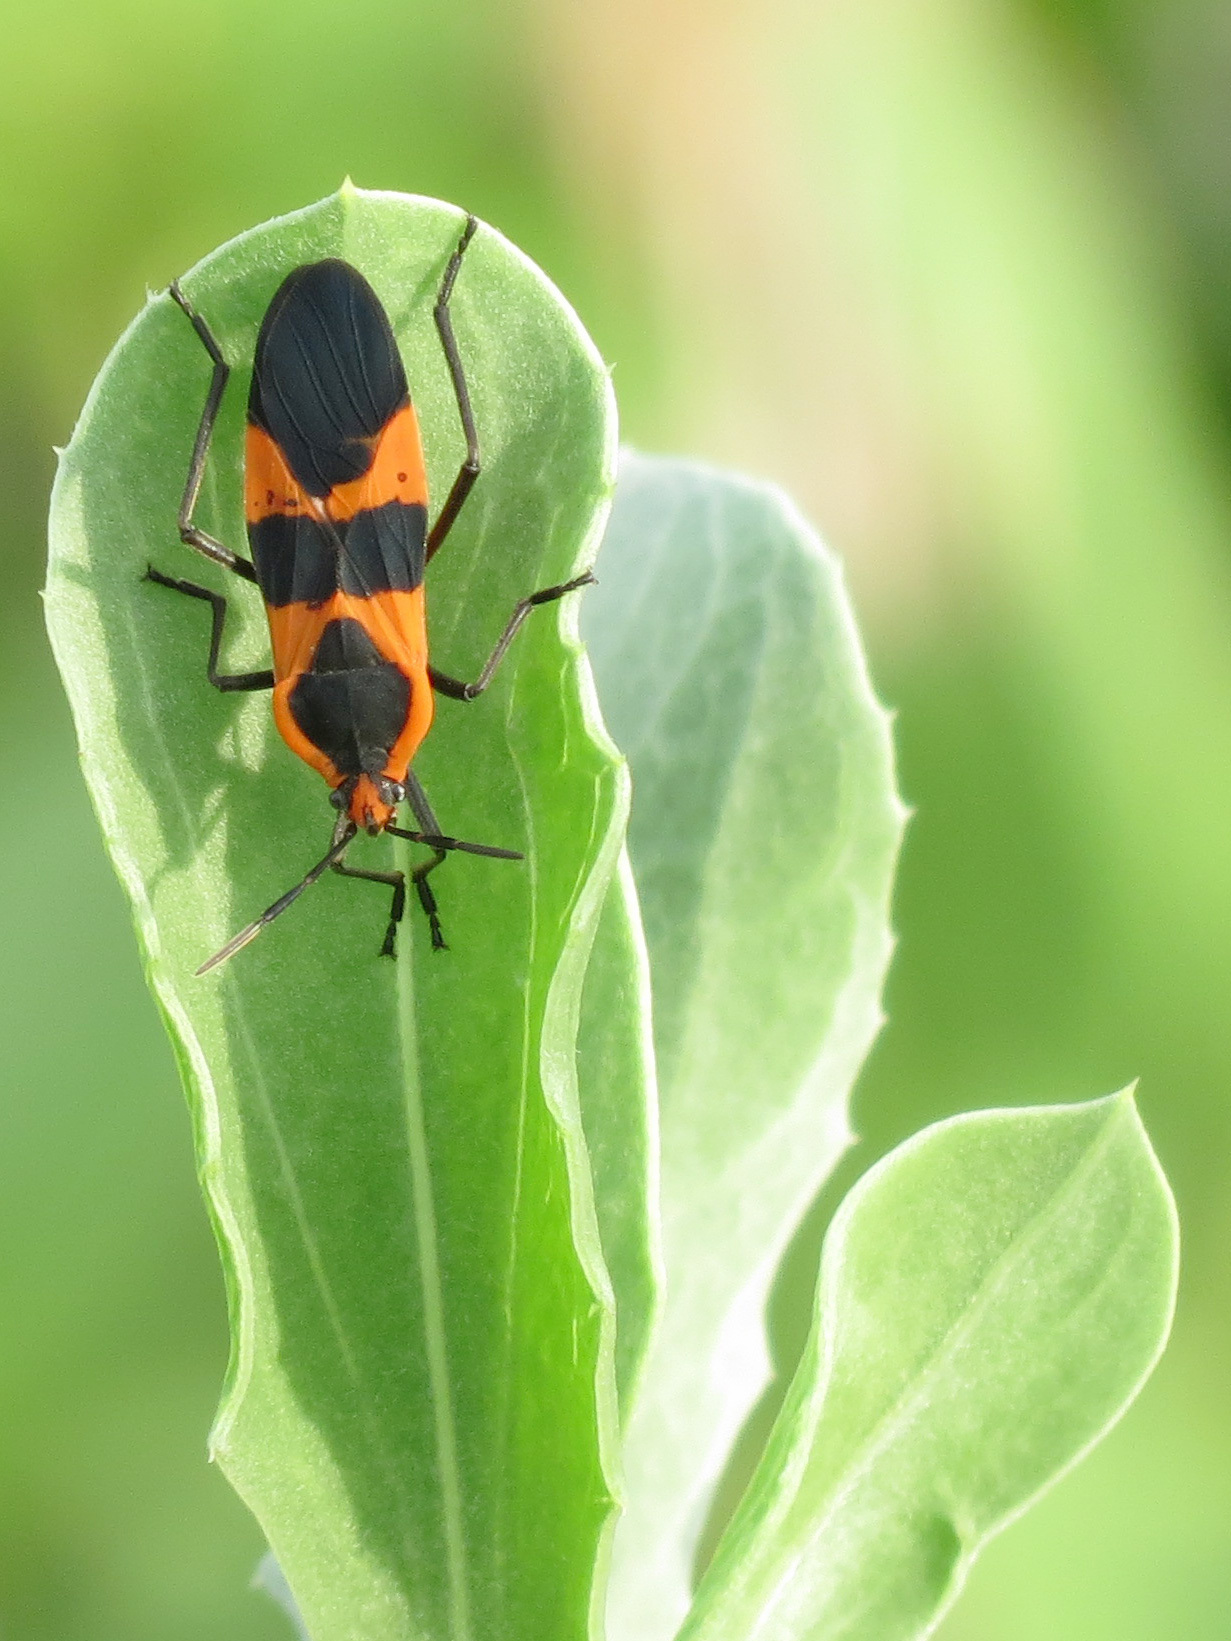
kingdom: Animalia
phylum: Arthropoda
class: Insecta
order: Hemiptera
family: Lygaeidae
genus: Oncopeltus
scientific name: Oncopeltus fasciatus
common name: Large milkweed bug
